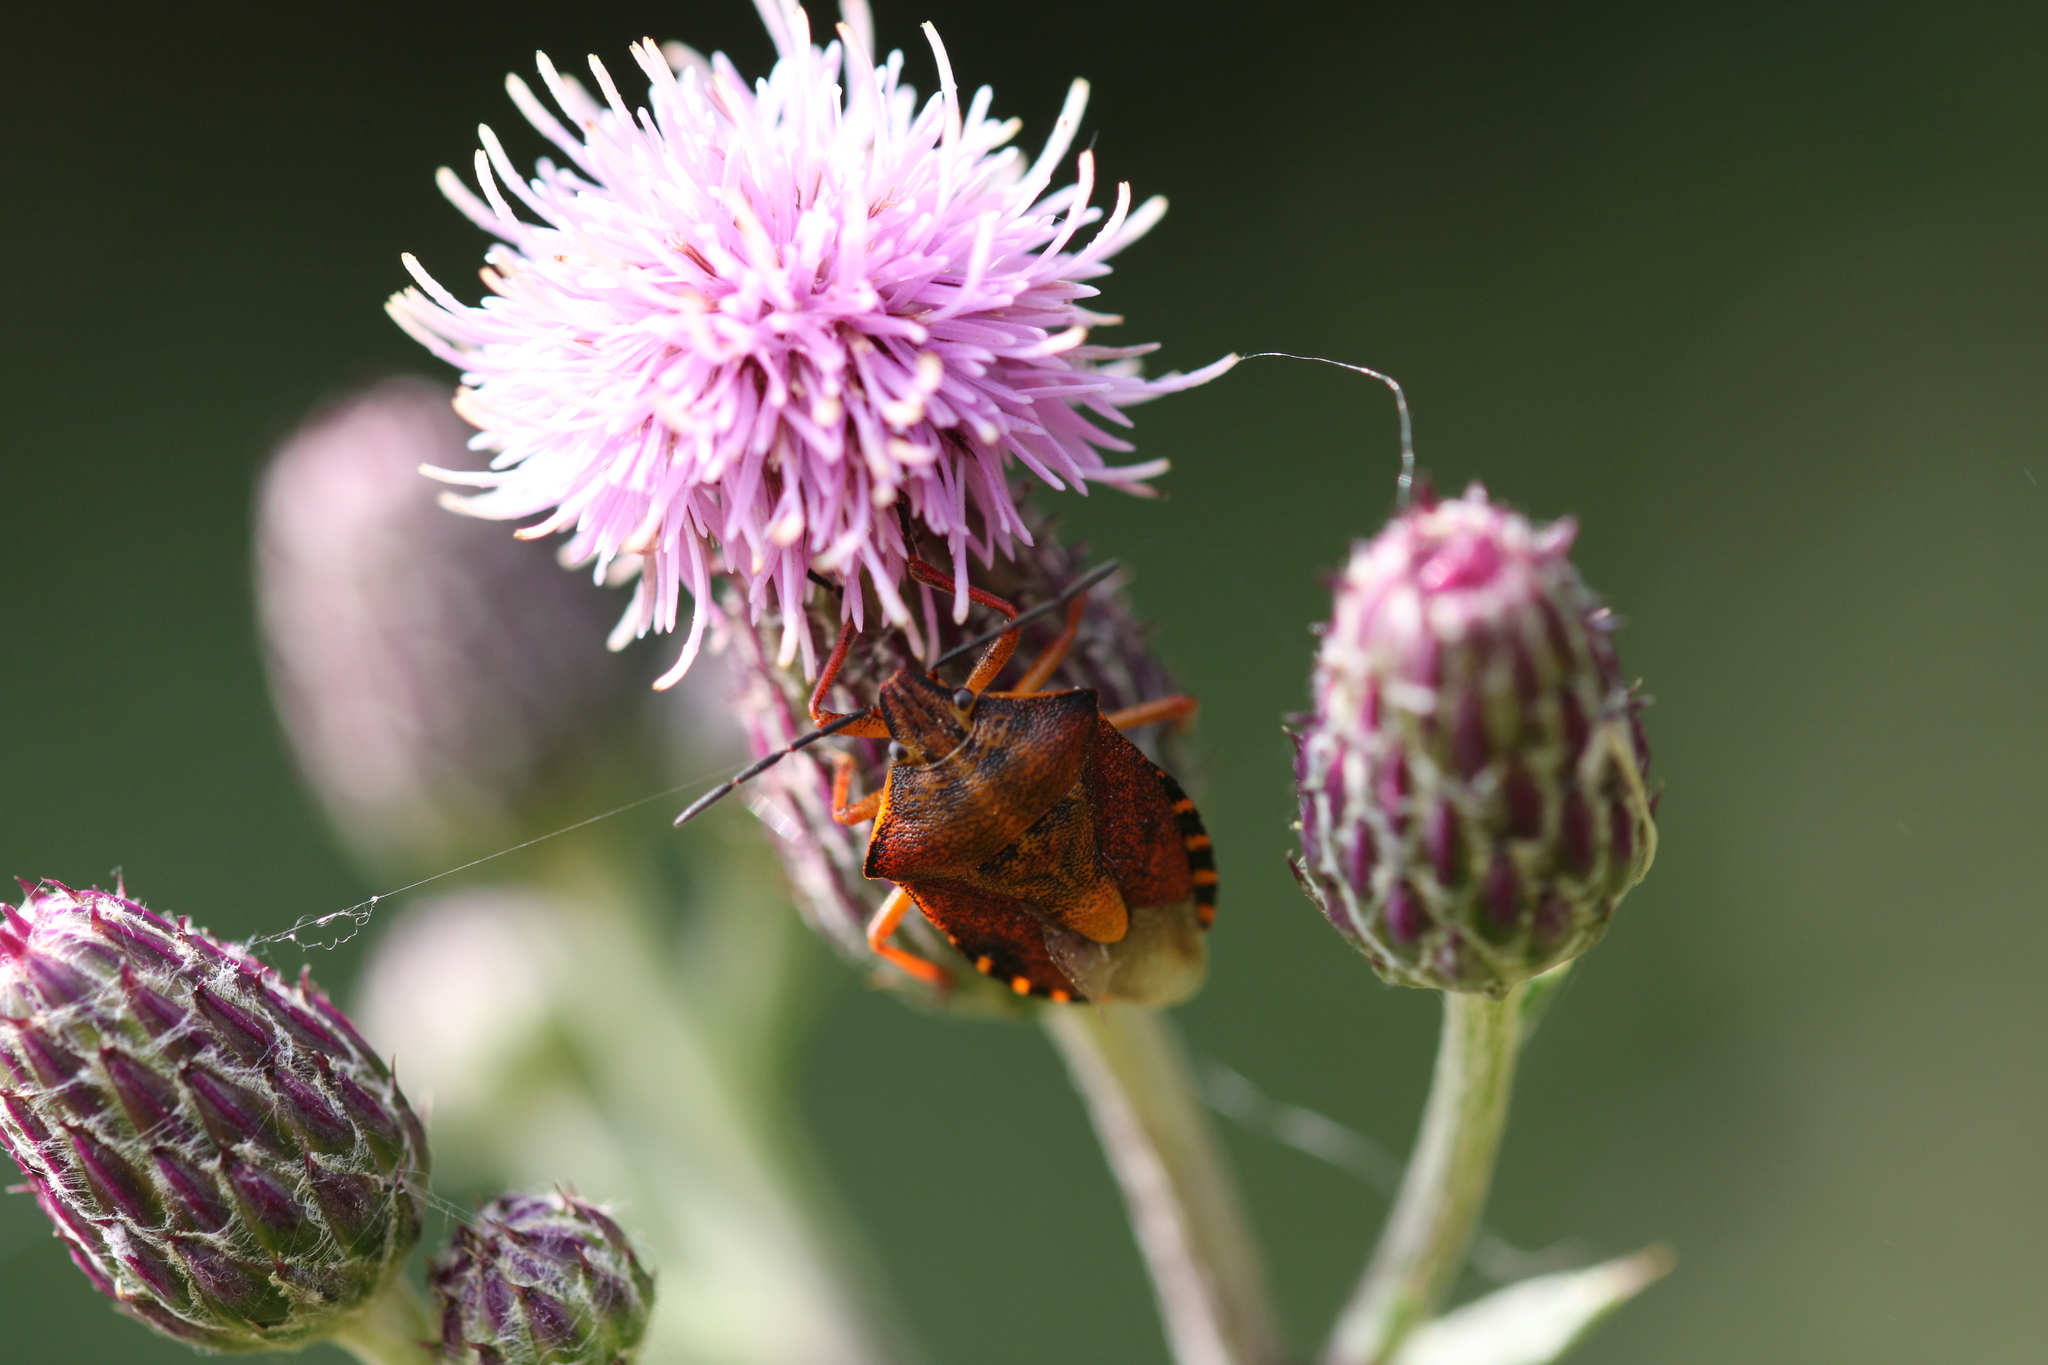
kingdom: Animalia
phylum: Arthropoda
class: Insecta
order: Hemiptera
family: Pentatomidae
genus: Carpocoris
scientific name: Carpocoris purpureipennis
